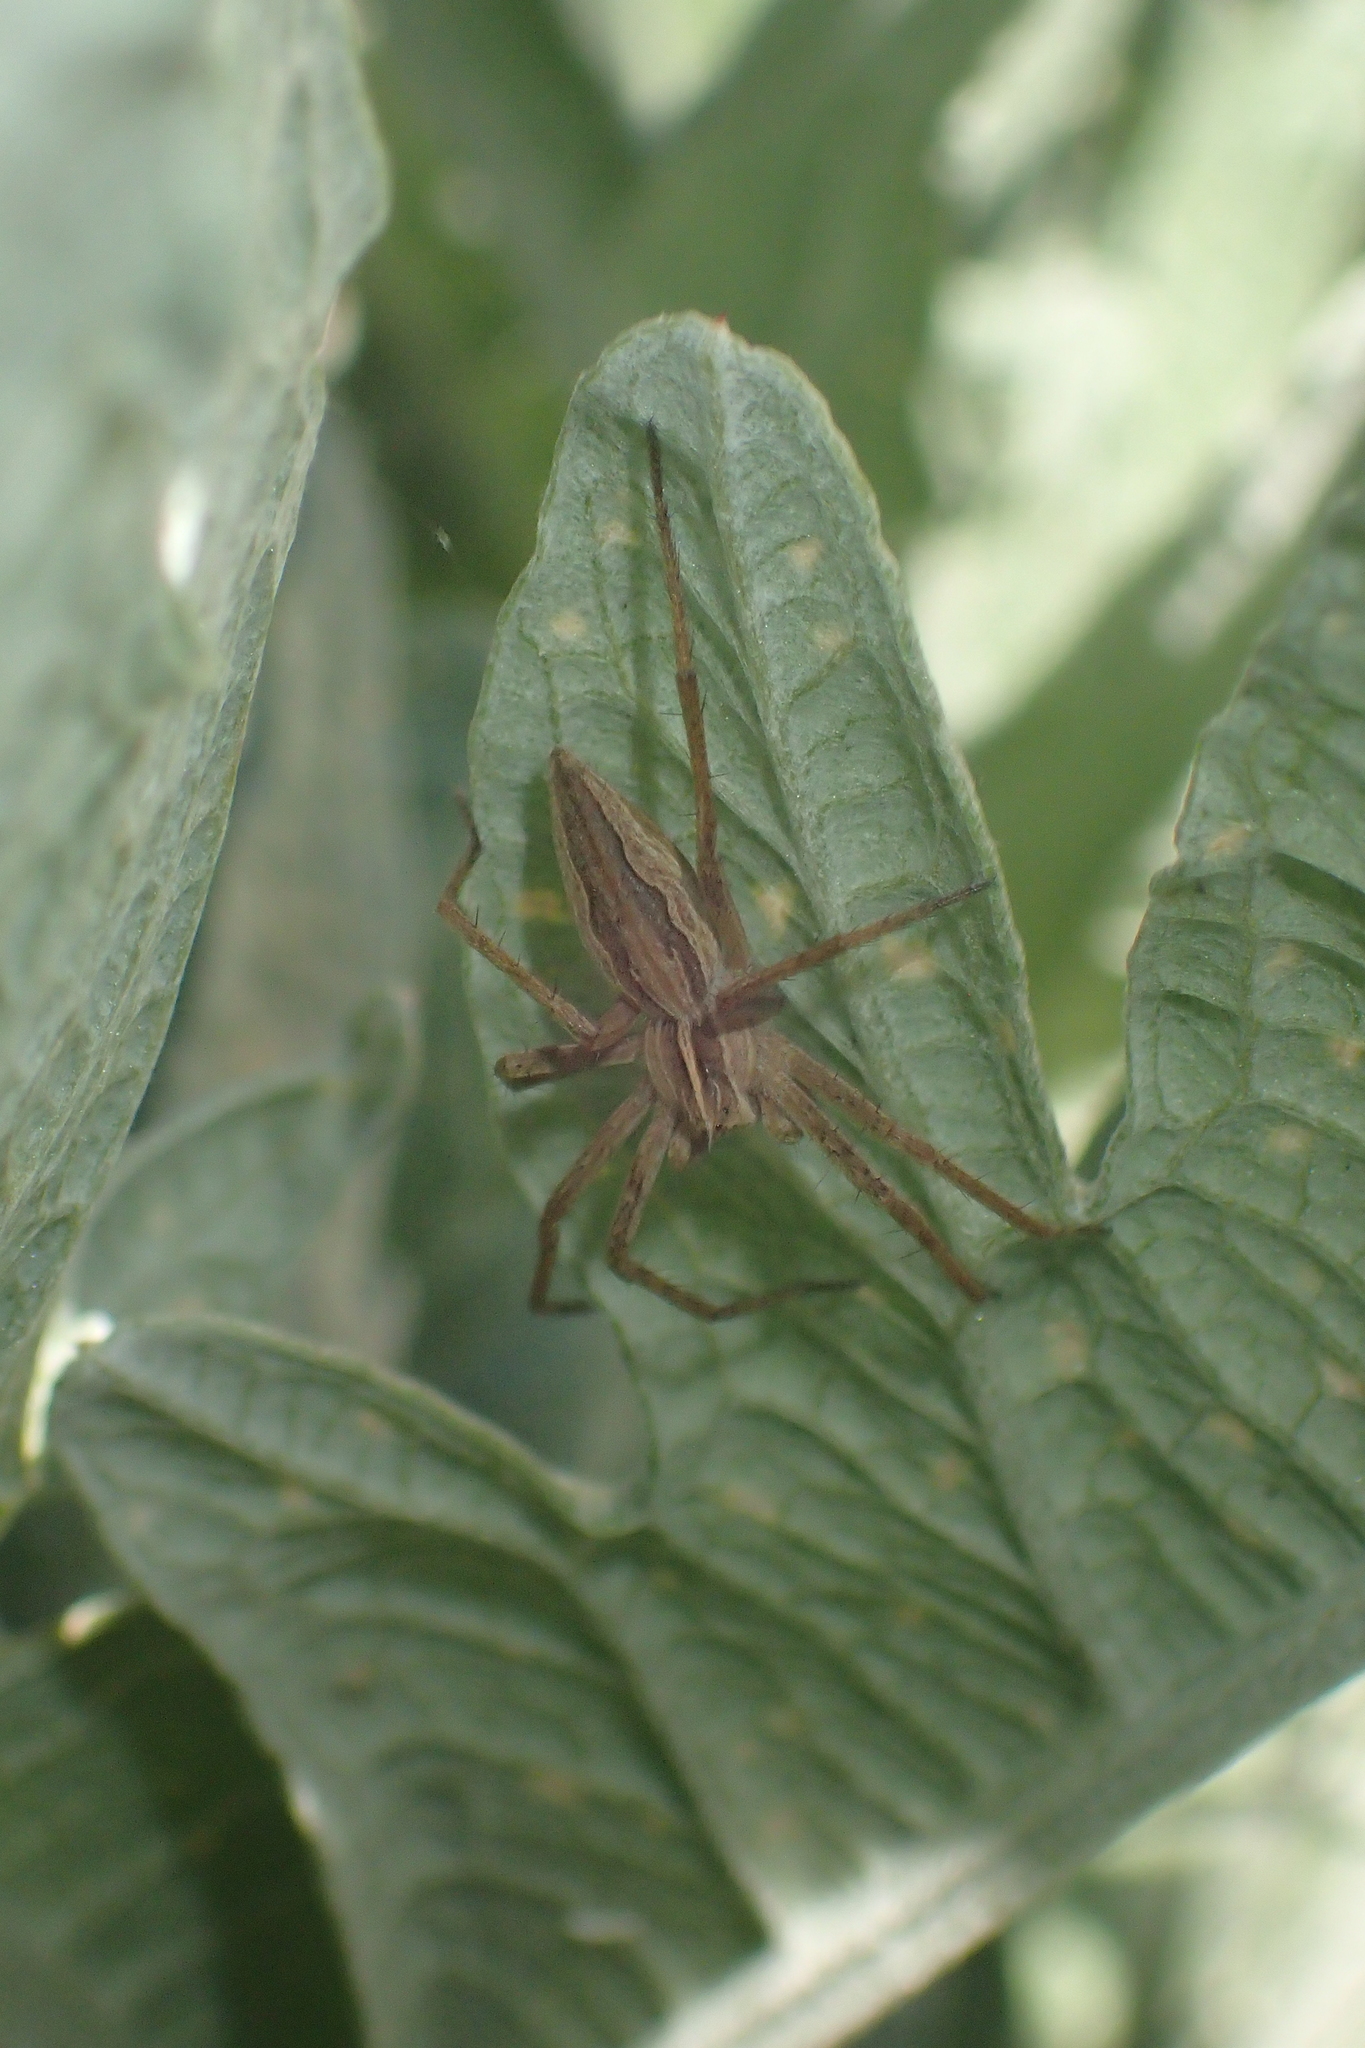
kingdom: Animalia
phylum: Arthropoda
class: Arachnida
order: Araneae
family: Pisauridae
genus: Pisaura
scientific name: Pisaura mirabilis
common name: Tent spider
